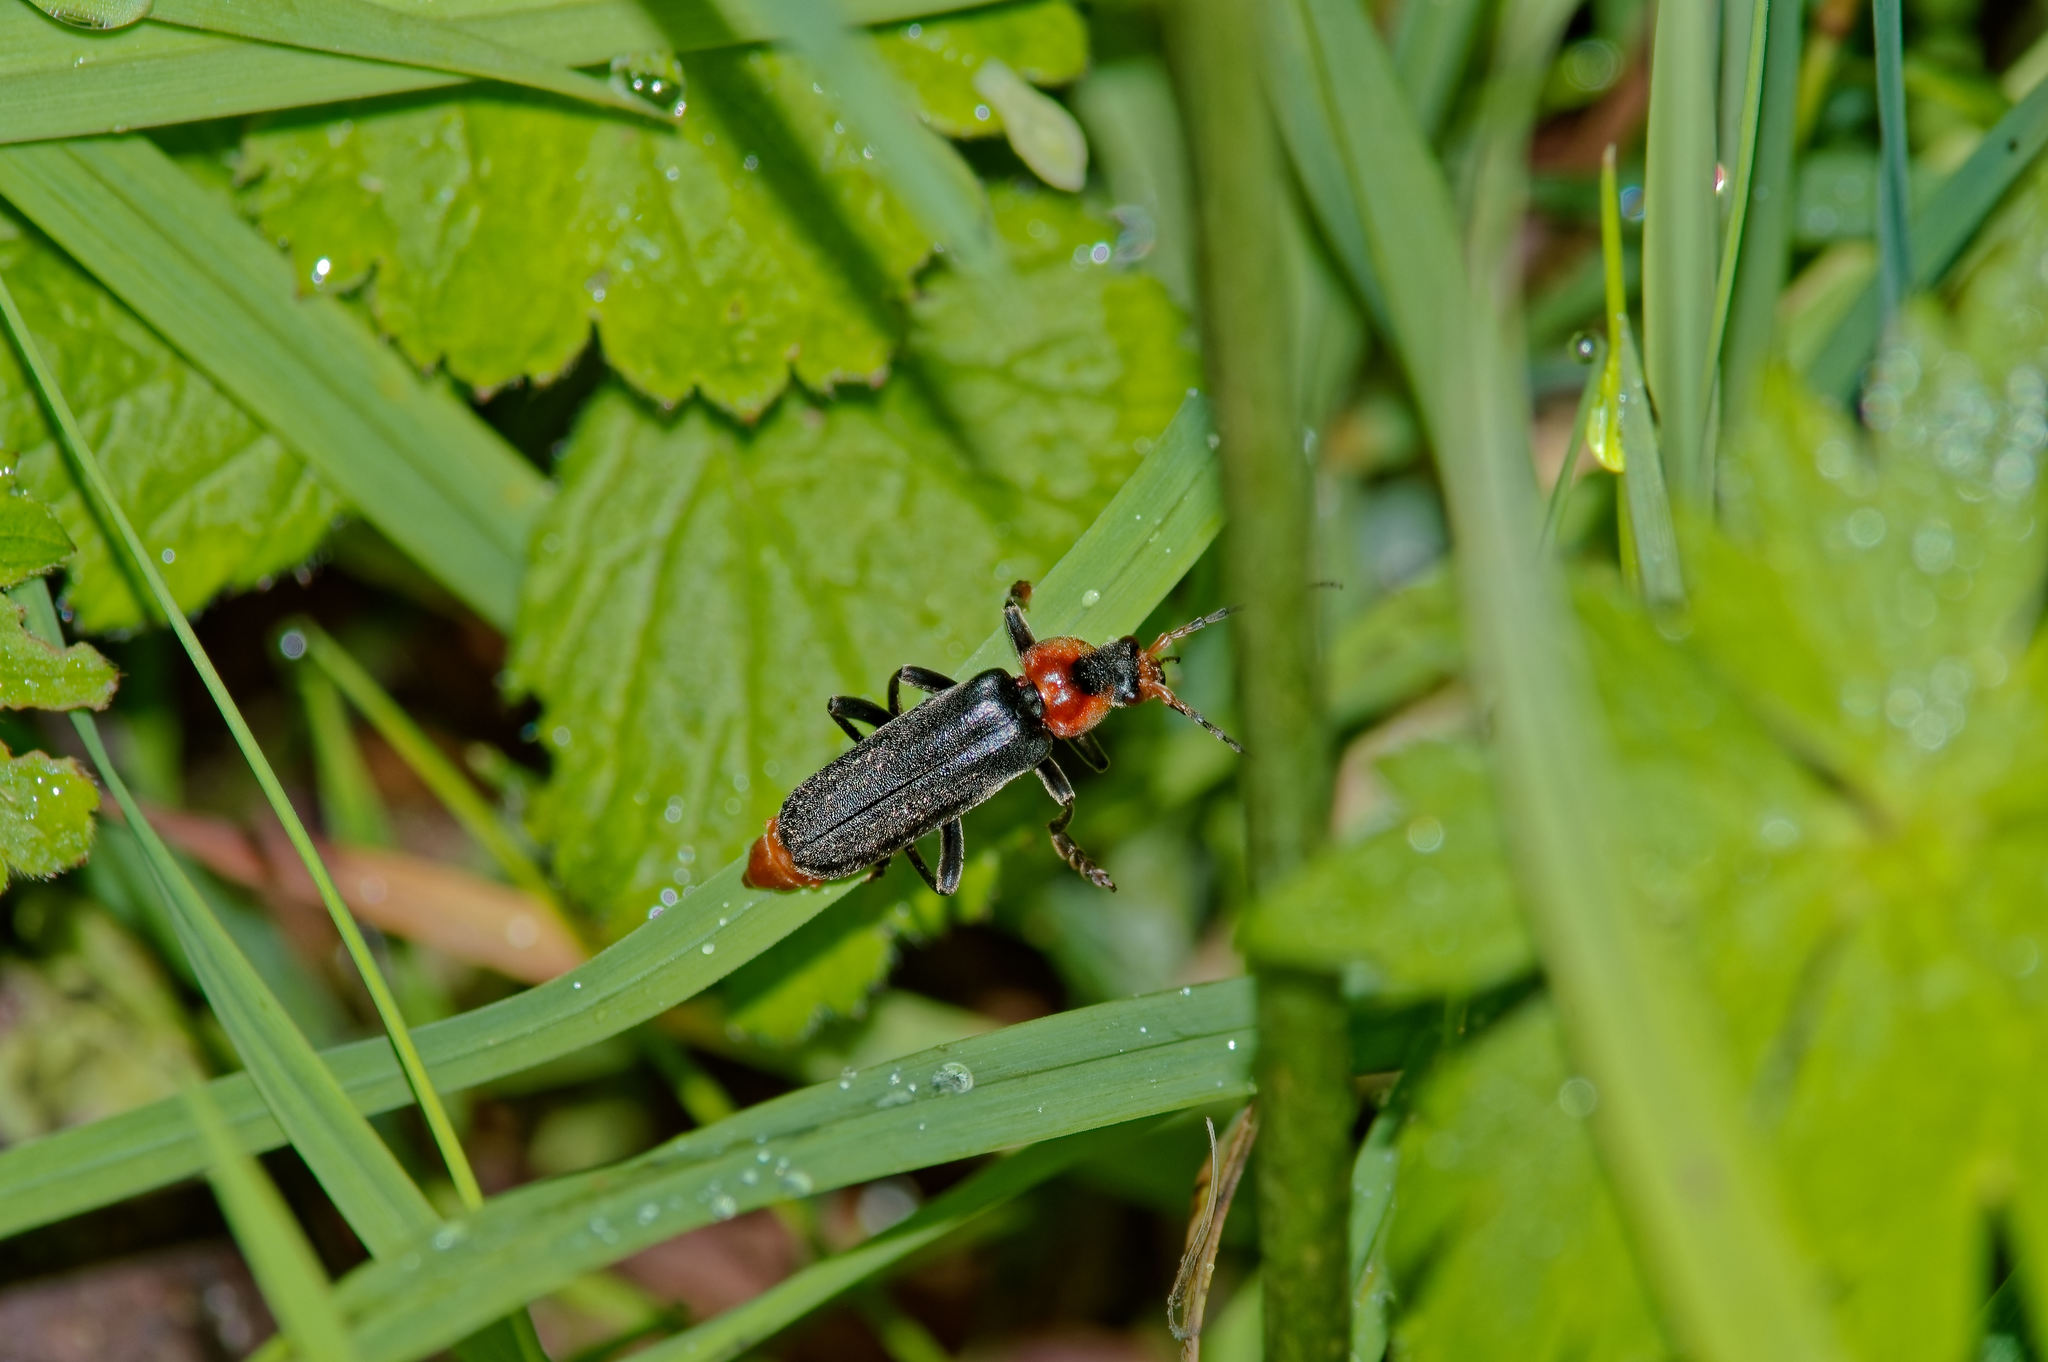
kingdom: Animalia
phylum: Arthropoda
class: Insecta
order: Coleoptera
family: Cantharidae
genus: Cantharis
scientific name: Cantharis fusca
